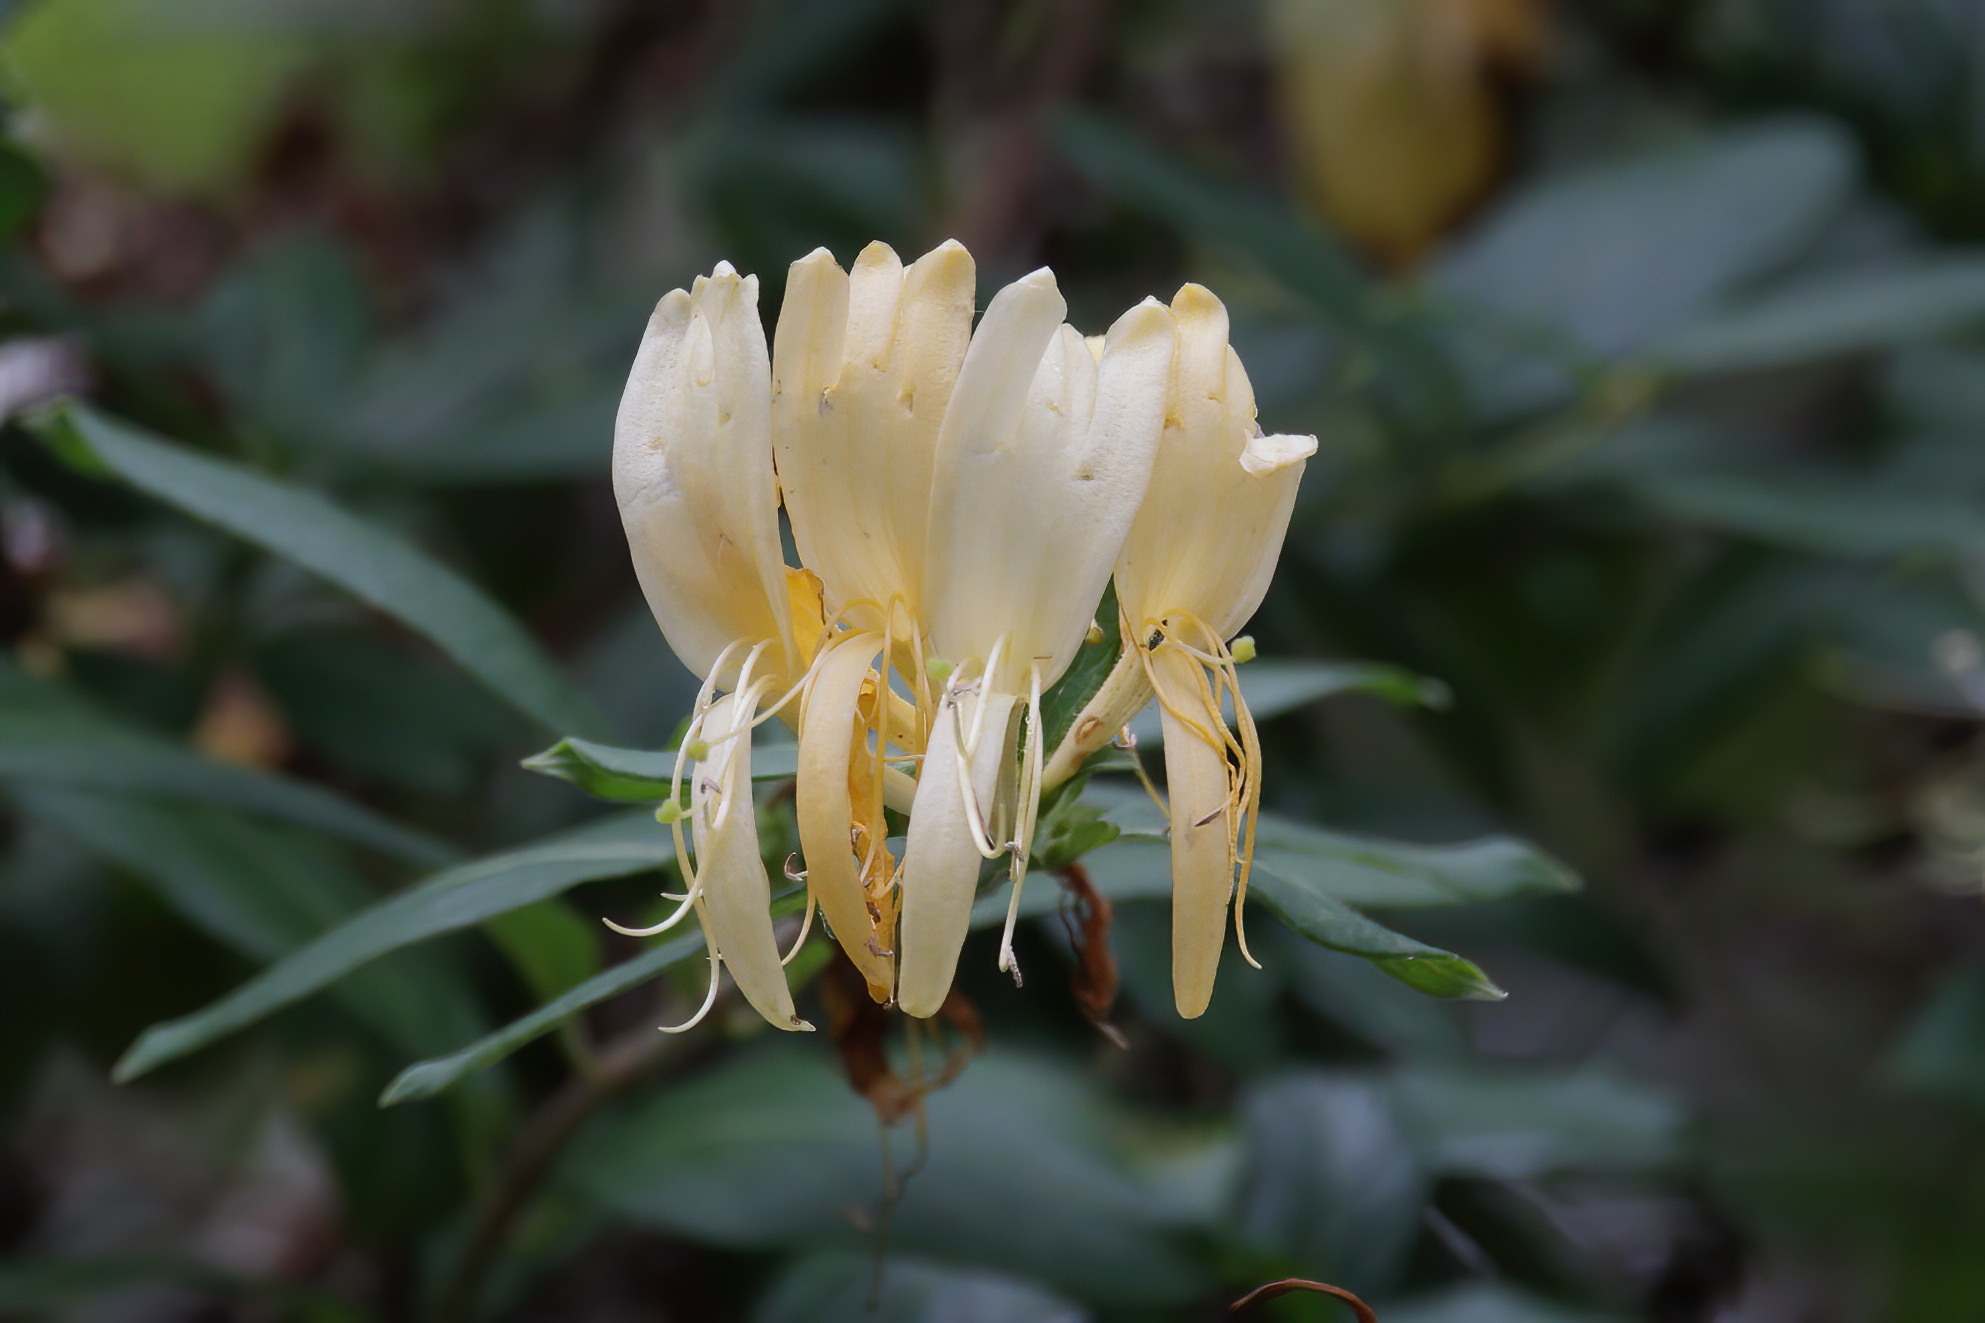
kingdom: Plantae
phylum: Tracheophyta
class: Magnoliopsida
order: Dipsacales
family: Caprifoliaceae
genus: Lonicera
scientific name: Lonicera japonica
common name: Japanese honeysuckle
